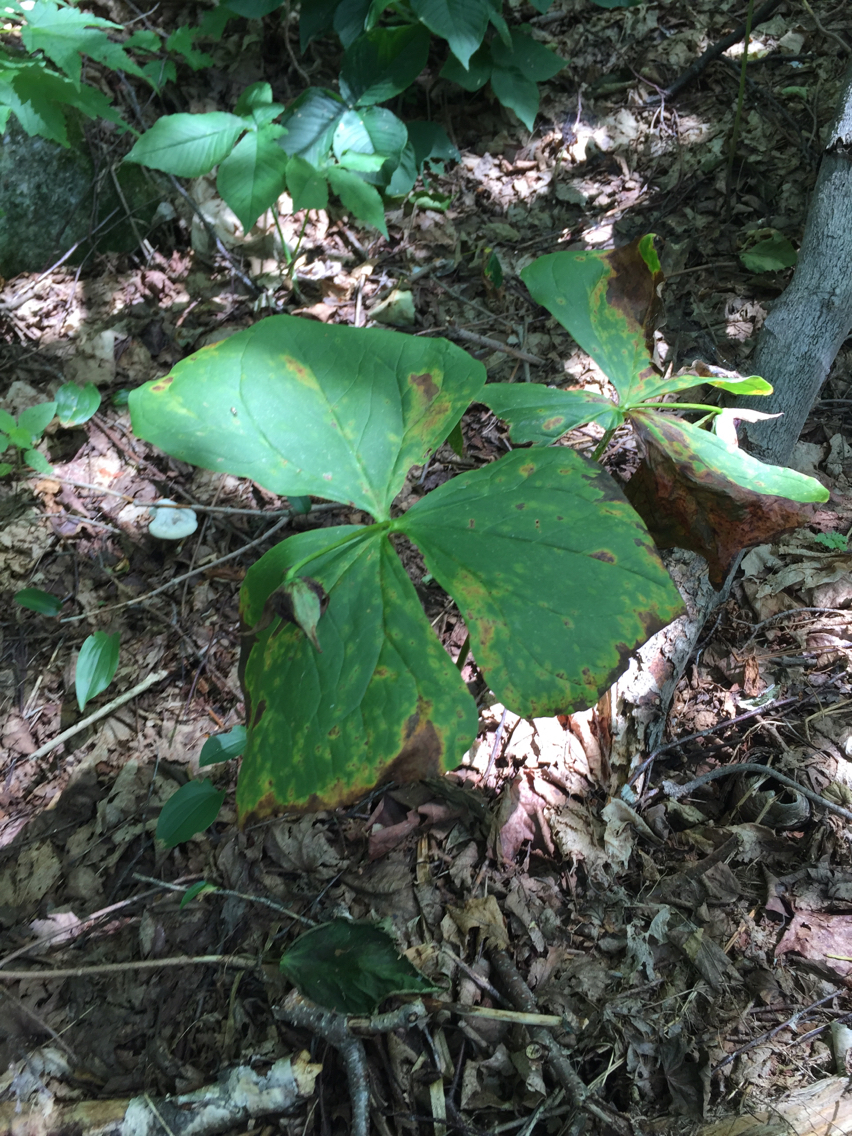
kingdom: Plantae
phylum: Tracheophyta
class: Liliopsida
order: Liliales
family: Melanthiaceae
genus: Trillium
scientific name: Trillium erectum
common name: Purple trillium
